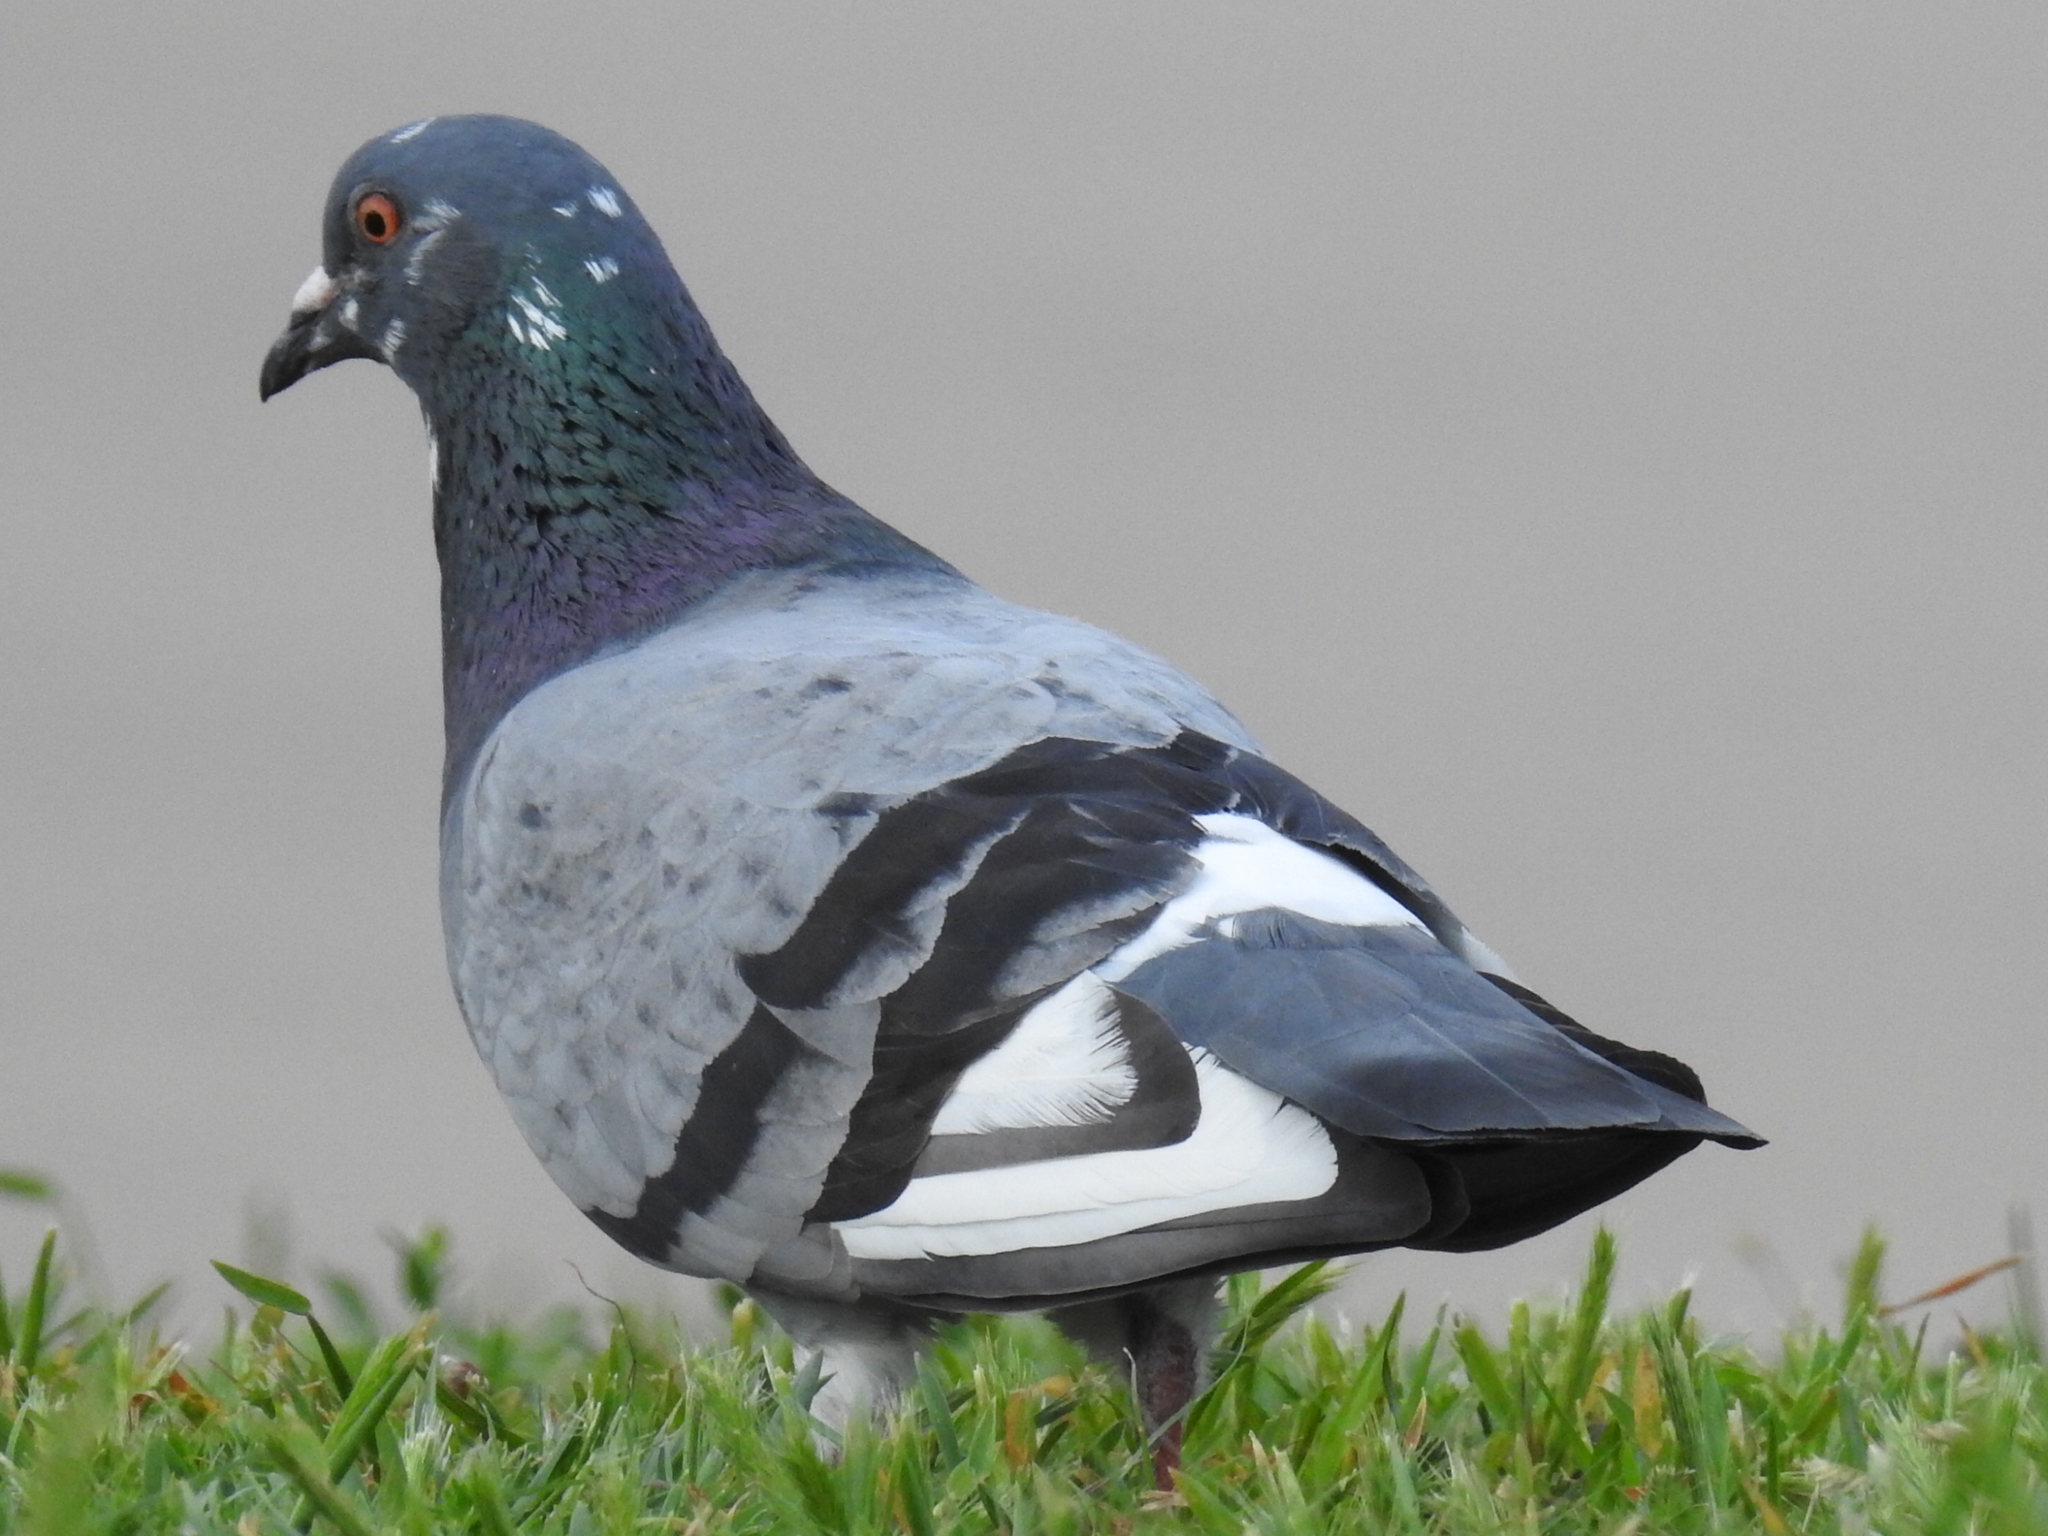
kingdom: Animalia
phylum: Chordata
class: Aves
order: Columbiformes
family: Columbidae
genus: Columba
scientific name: Columba livia
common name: Rock pigeon
